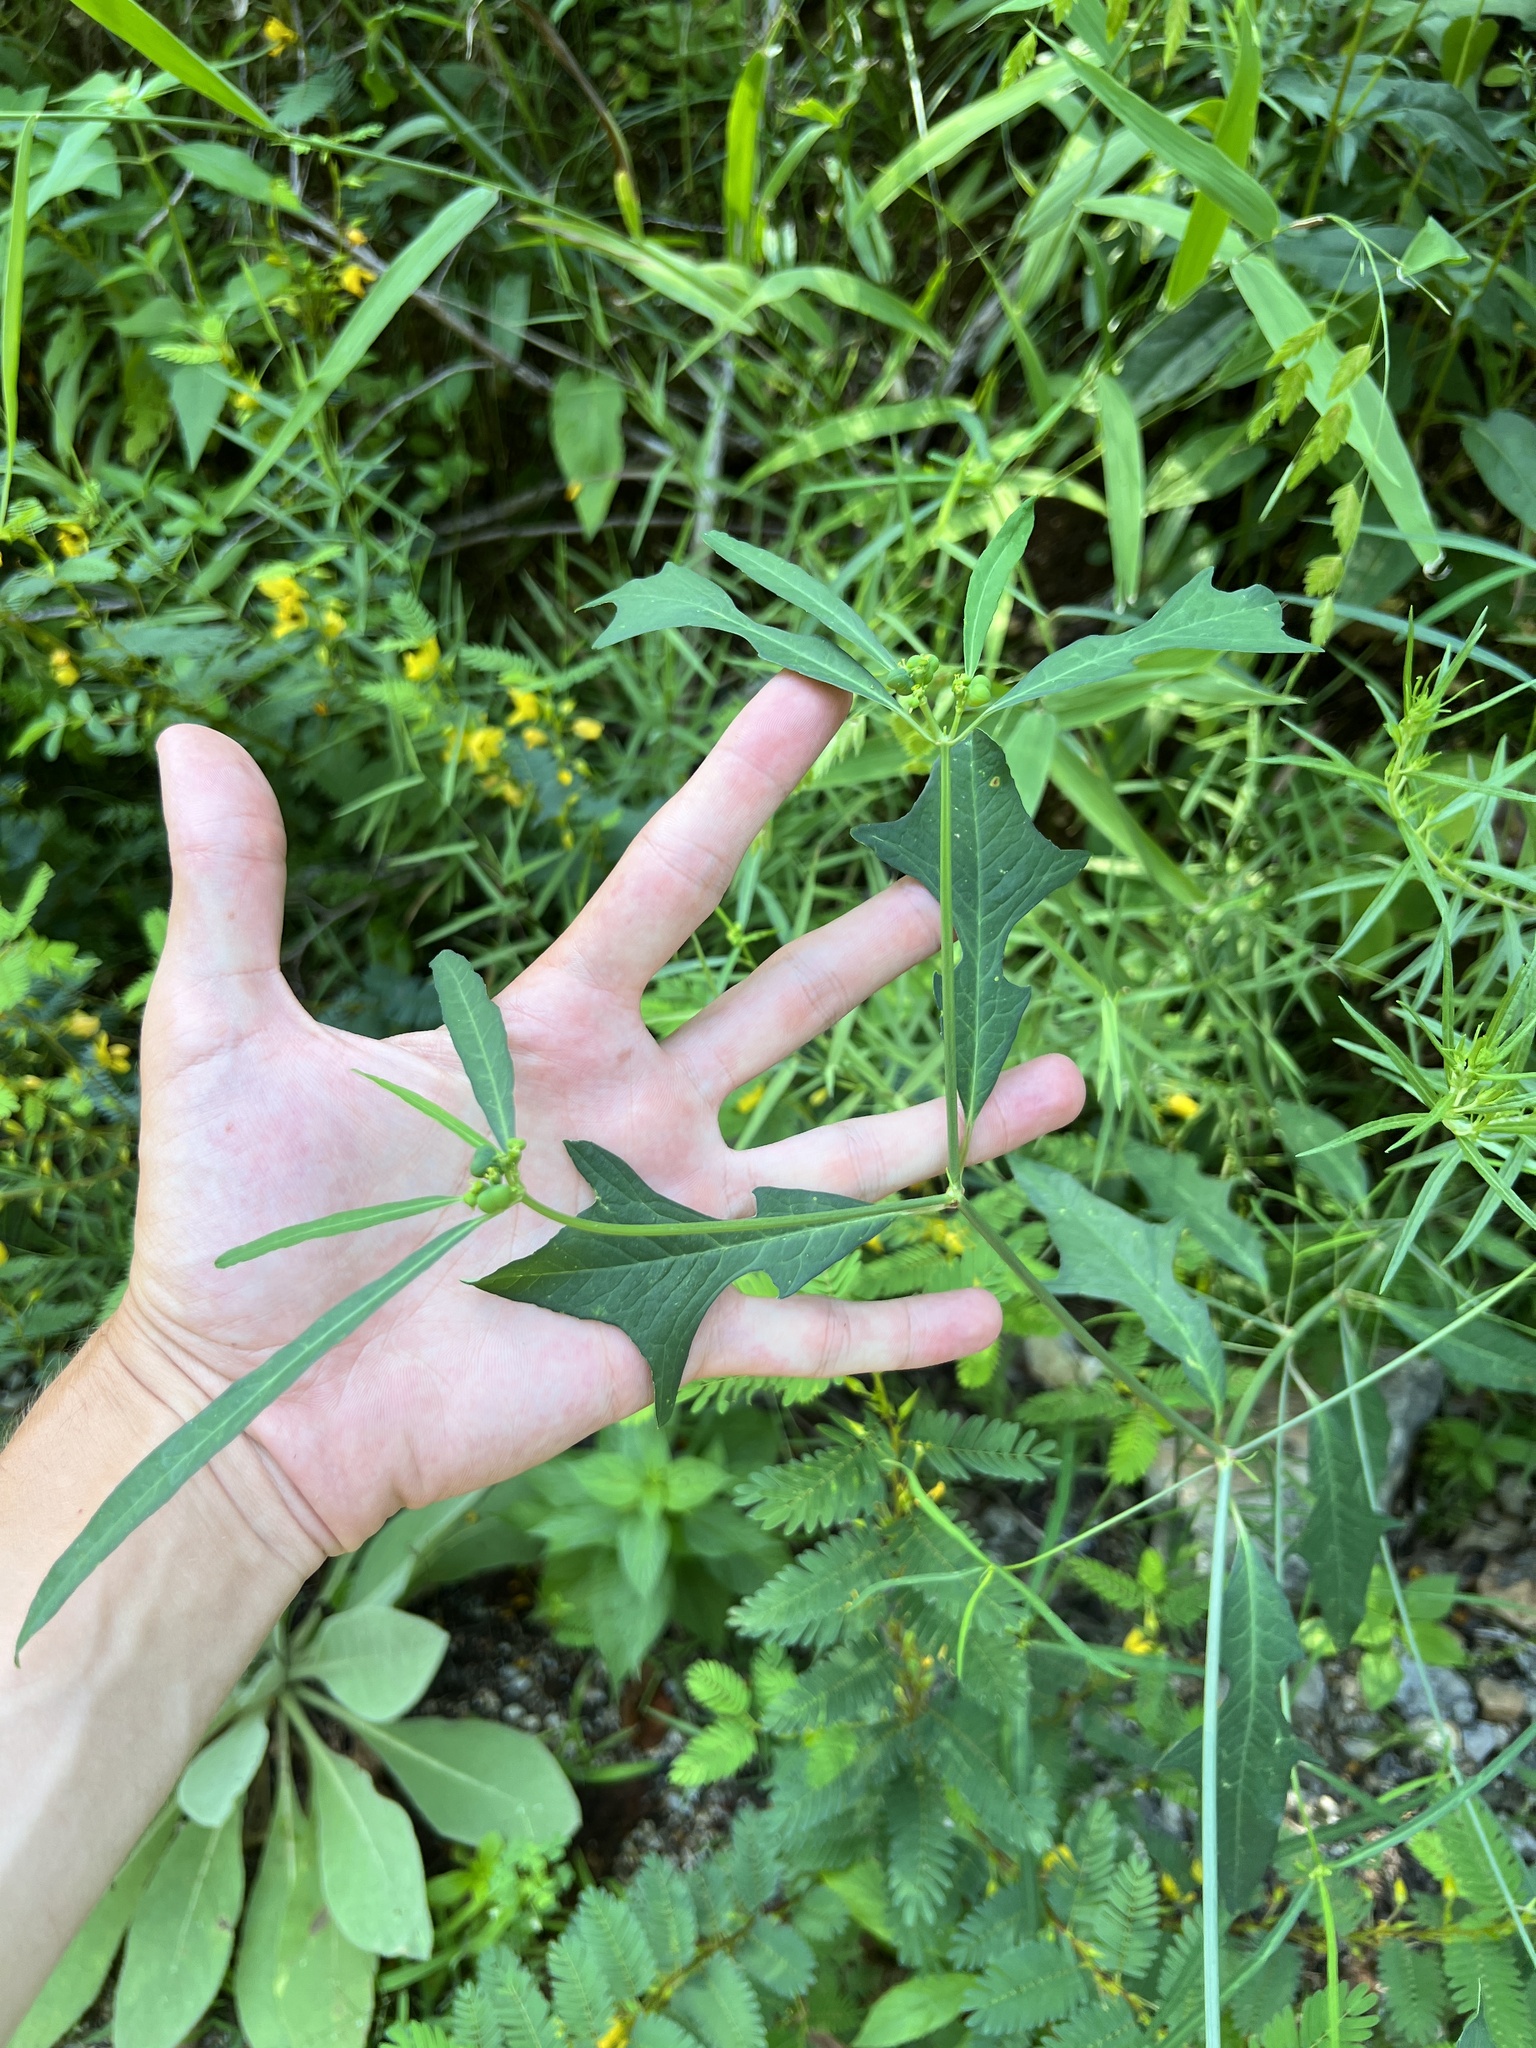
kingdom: Plantae
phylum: Tracheophyta
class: Magnoliopsida
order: Malpighiales
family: Euphorbiaceae
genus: Euphorbia
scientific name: Euphorbia heterophylla
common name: Mexican fireplant
